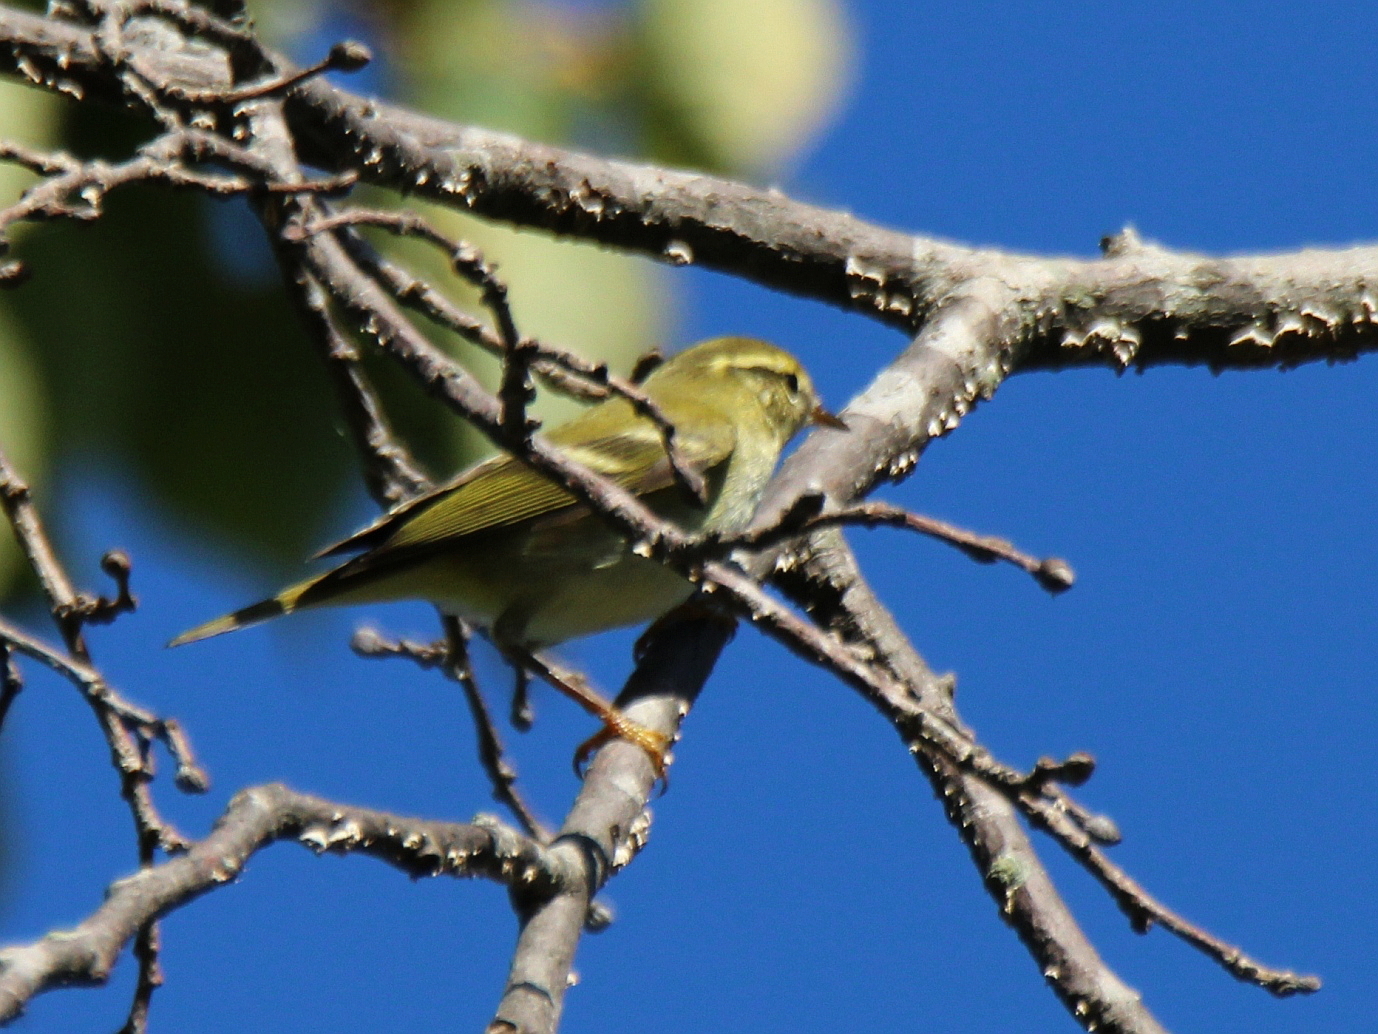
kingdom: Animalia
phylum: Chordata
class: Aves
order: Passeriformes
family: Phylloscopidae
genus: Phylloscopus
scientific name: Phylloscopus inornatus
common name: Yellow-browed warbler
